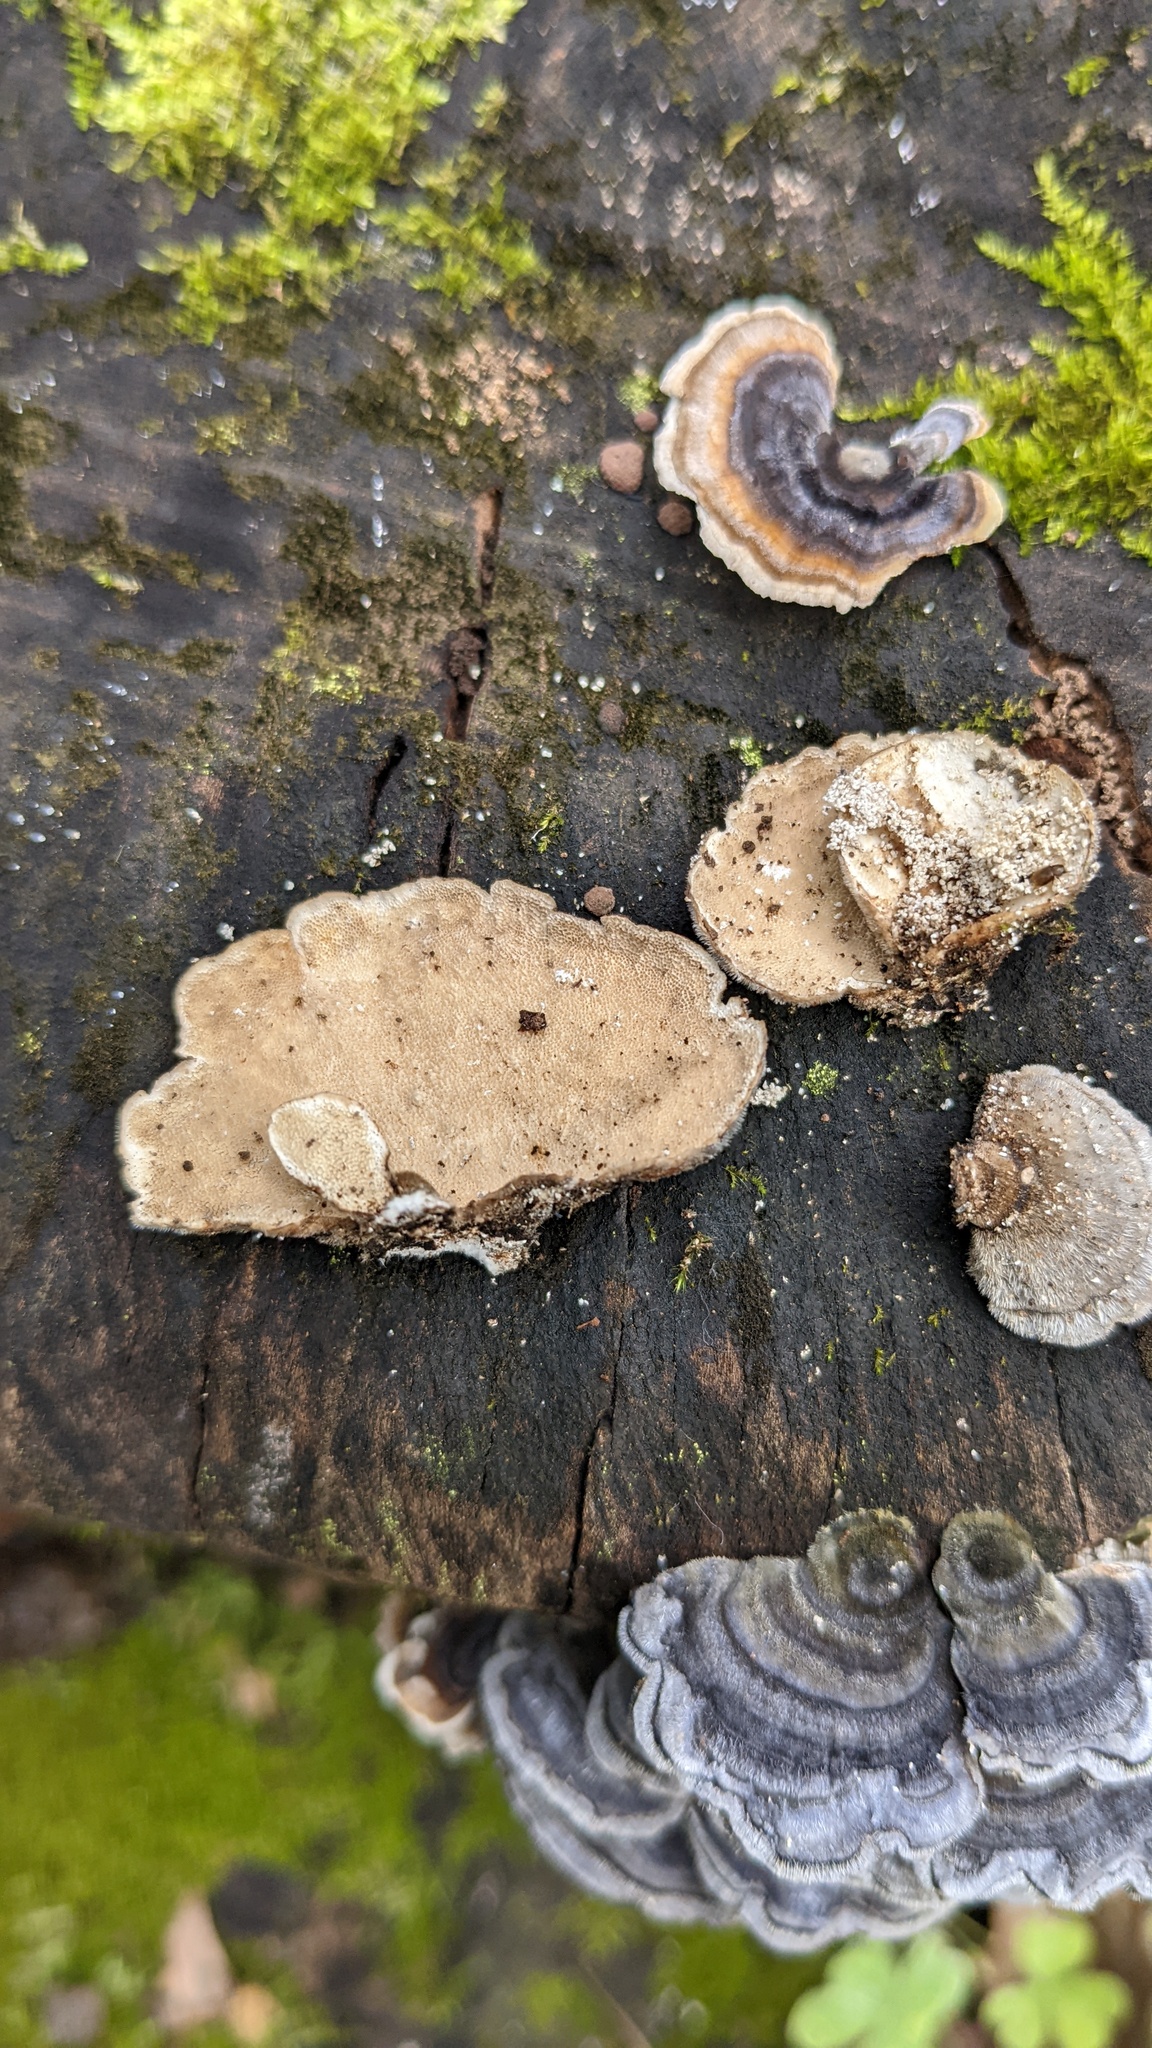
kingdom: Fungi
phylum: Basidiomycota
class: Agaricomycetes
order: Polyporales
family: Polyporaceae
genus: Trametes
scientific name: Trametes versicolor
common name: Turkeytail
